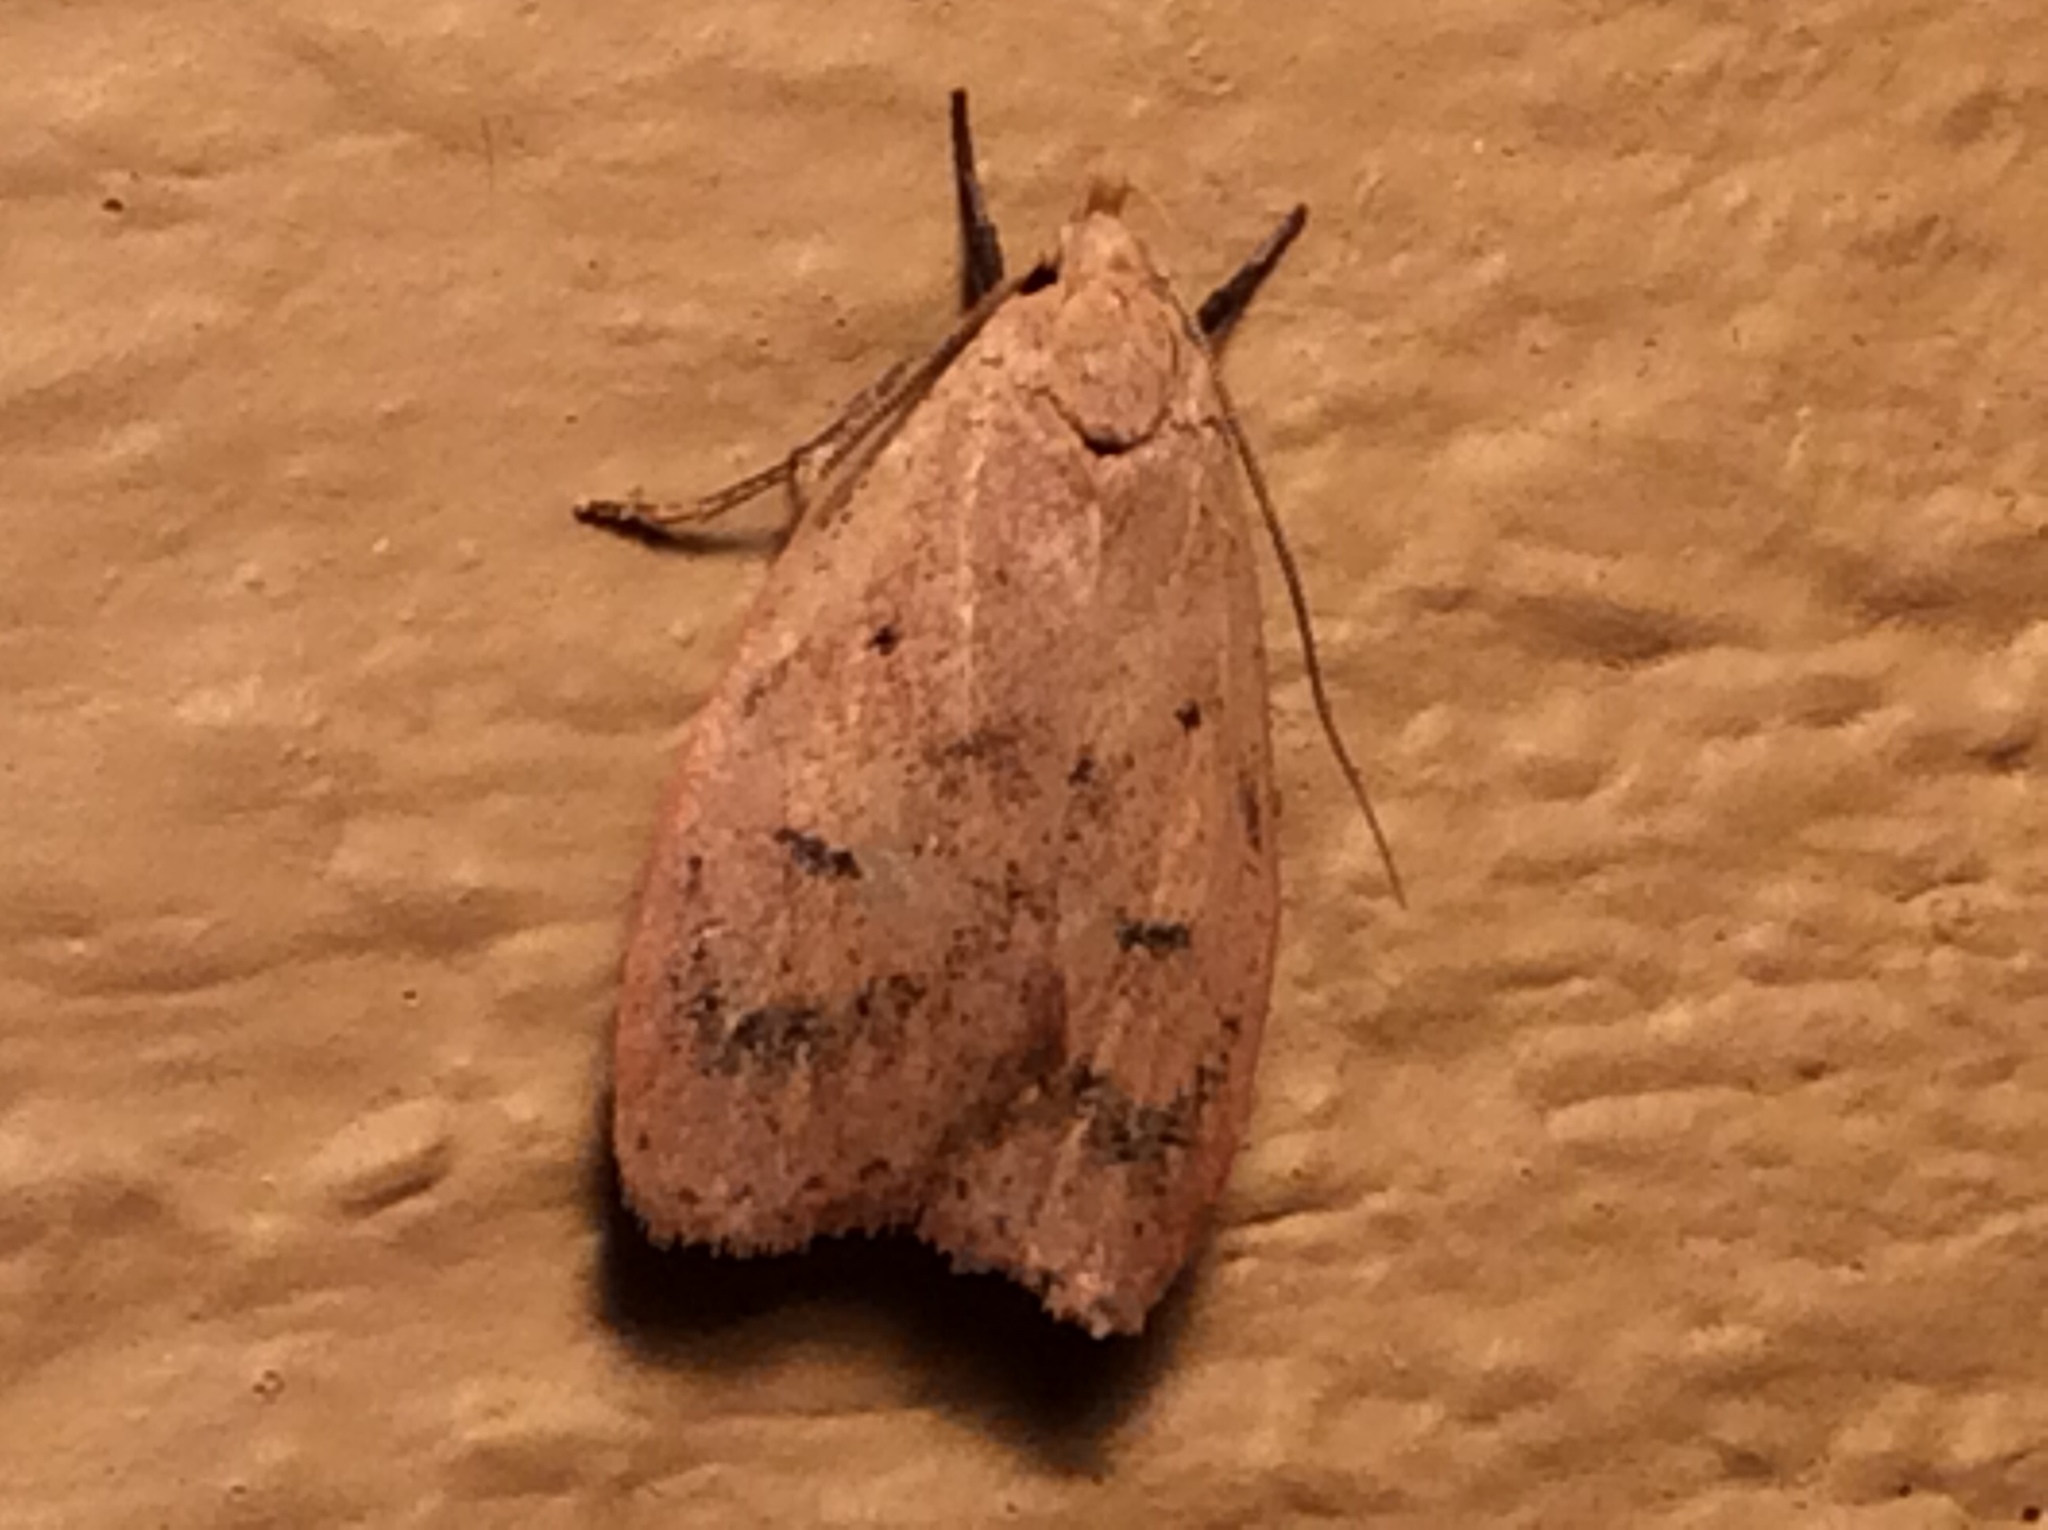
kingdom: Animalia
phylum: Arthropoda
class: Insecta
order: Lepidoptera
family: Peleopodidae
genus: Machimia
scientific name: Machimia tentoriferella
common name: Gold-striped leaftier moth
